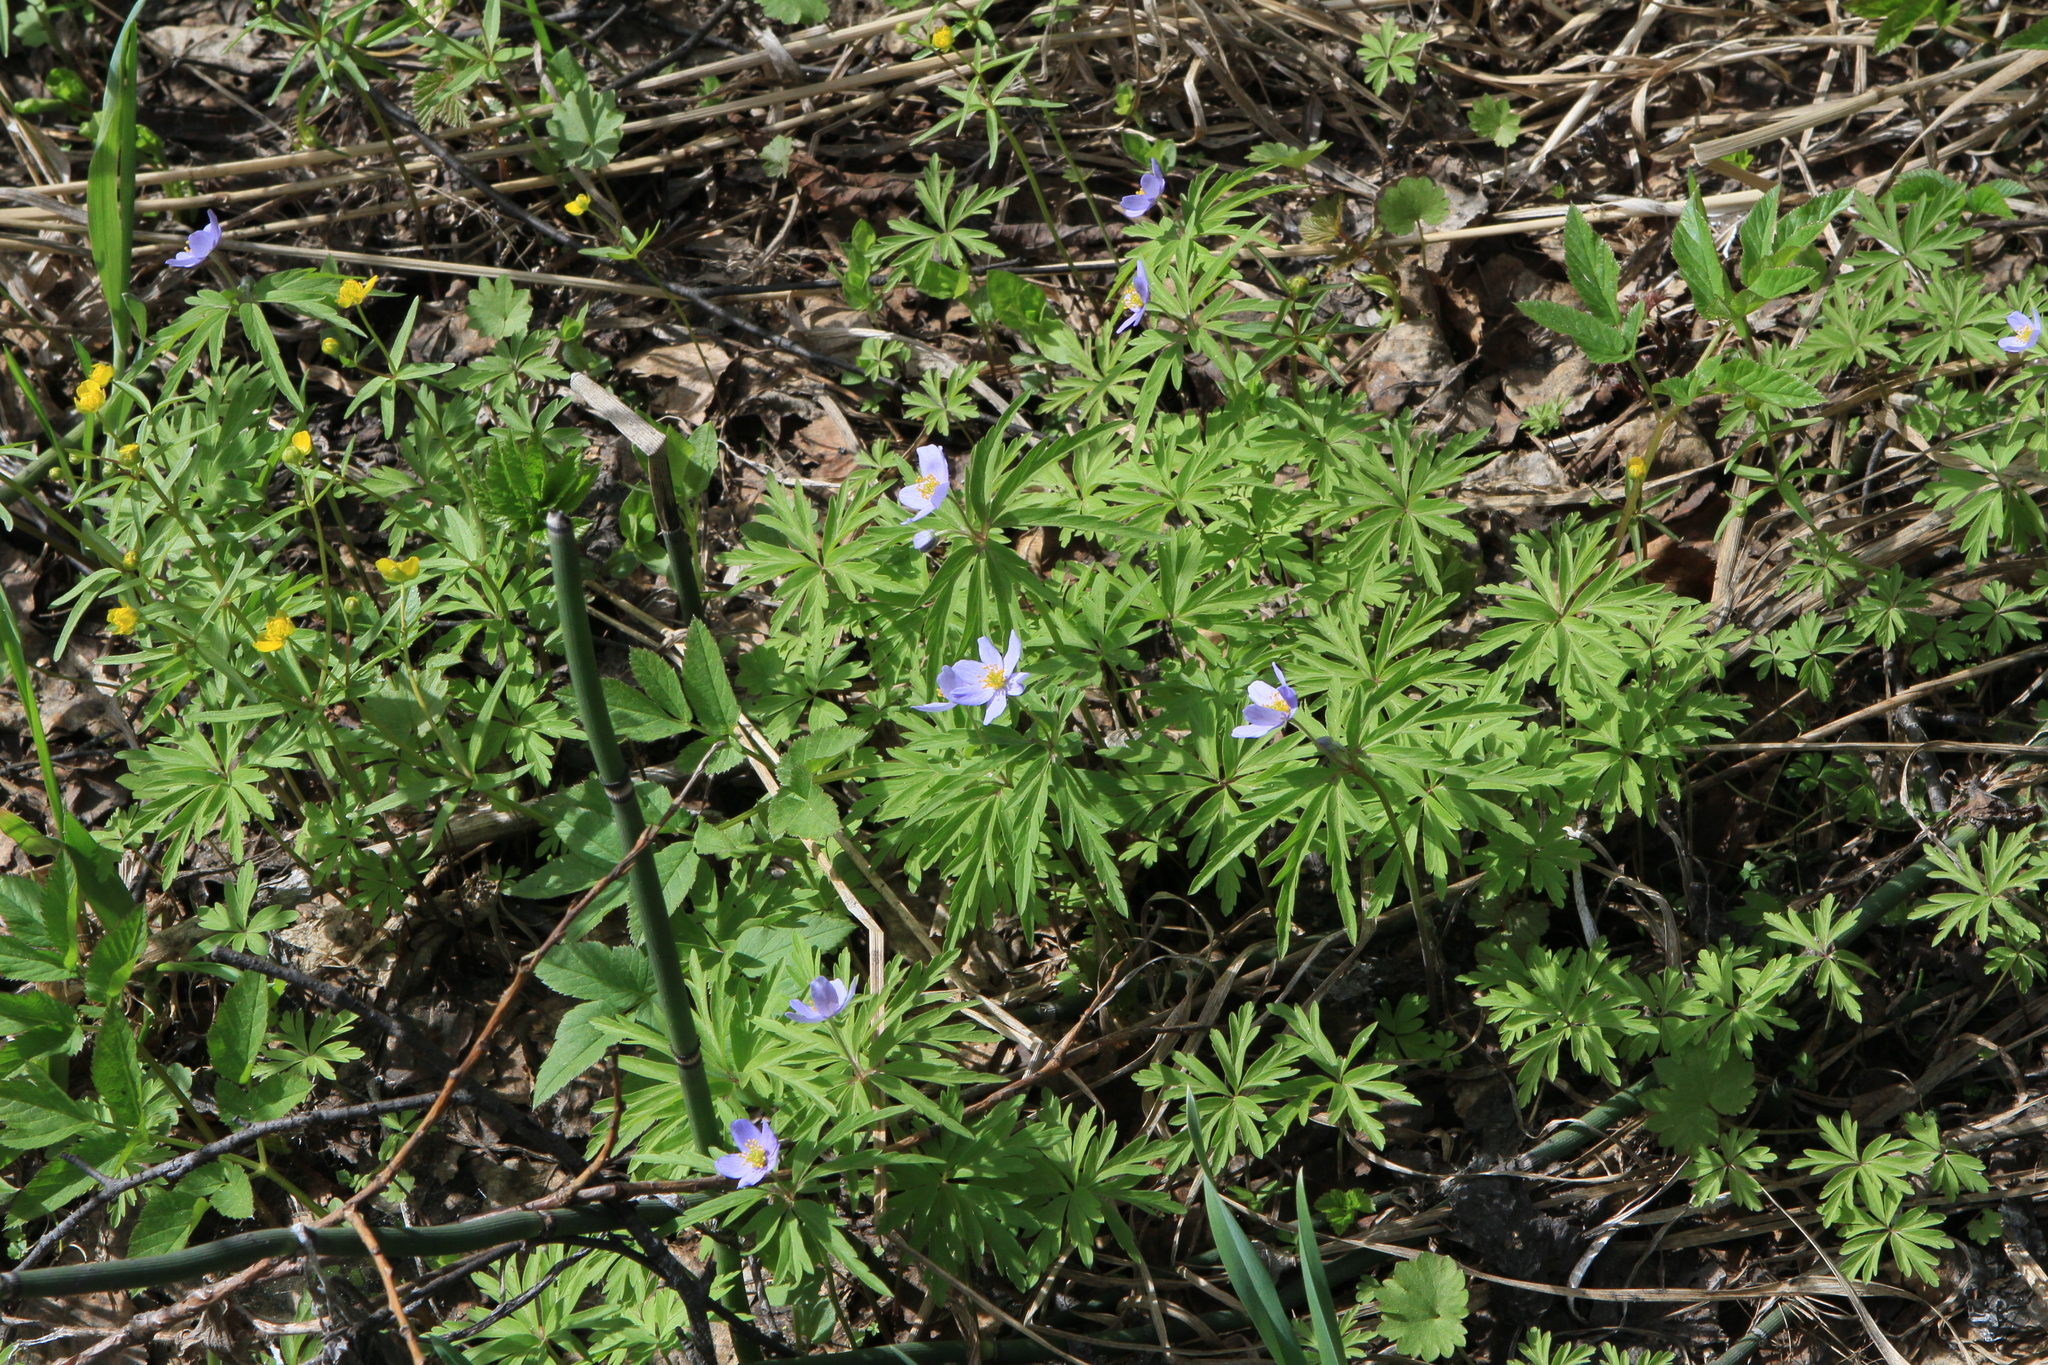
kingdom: Plantae
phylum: Tracheophyta
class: Magnoliopsida
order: Ranunculales
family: Ranunculaceae
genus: Anemone
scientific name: Anemone caerulea
